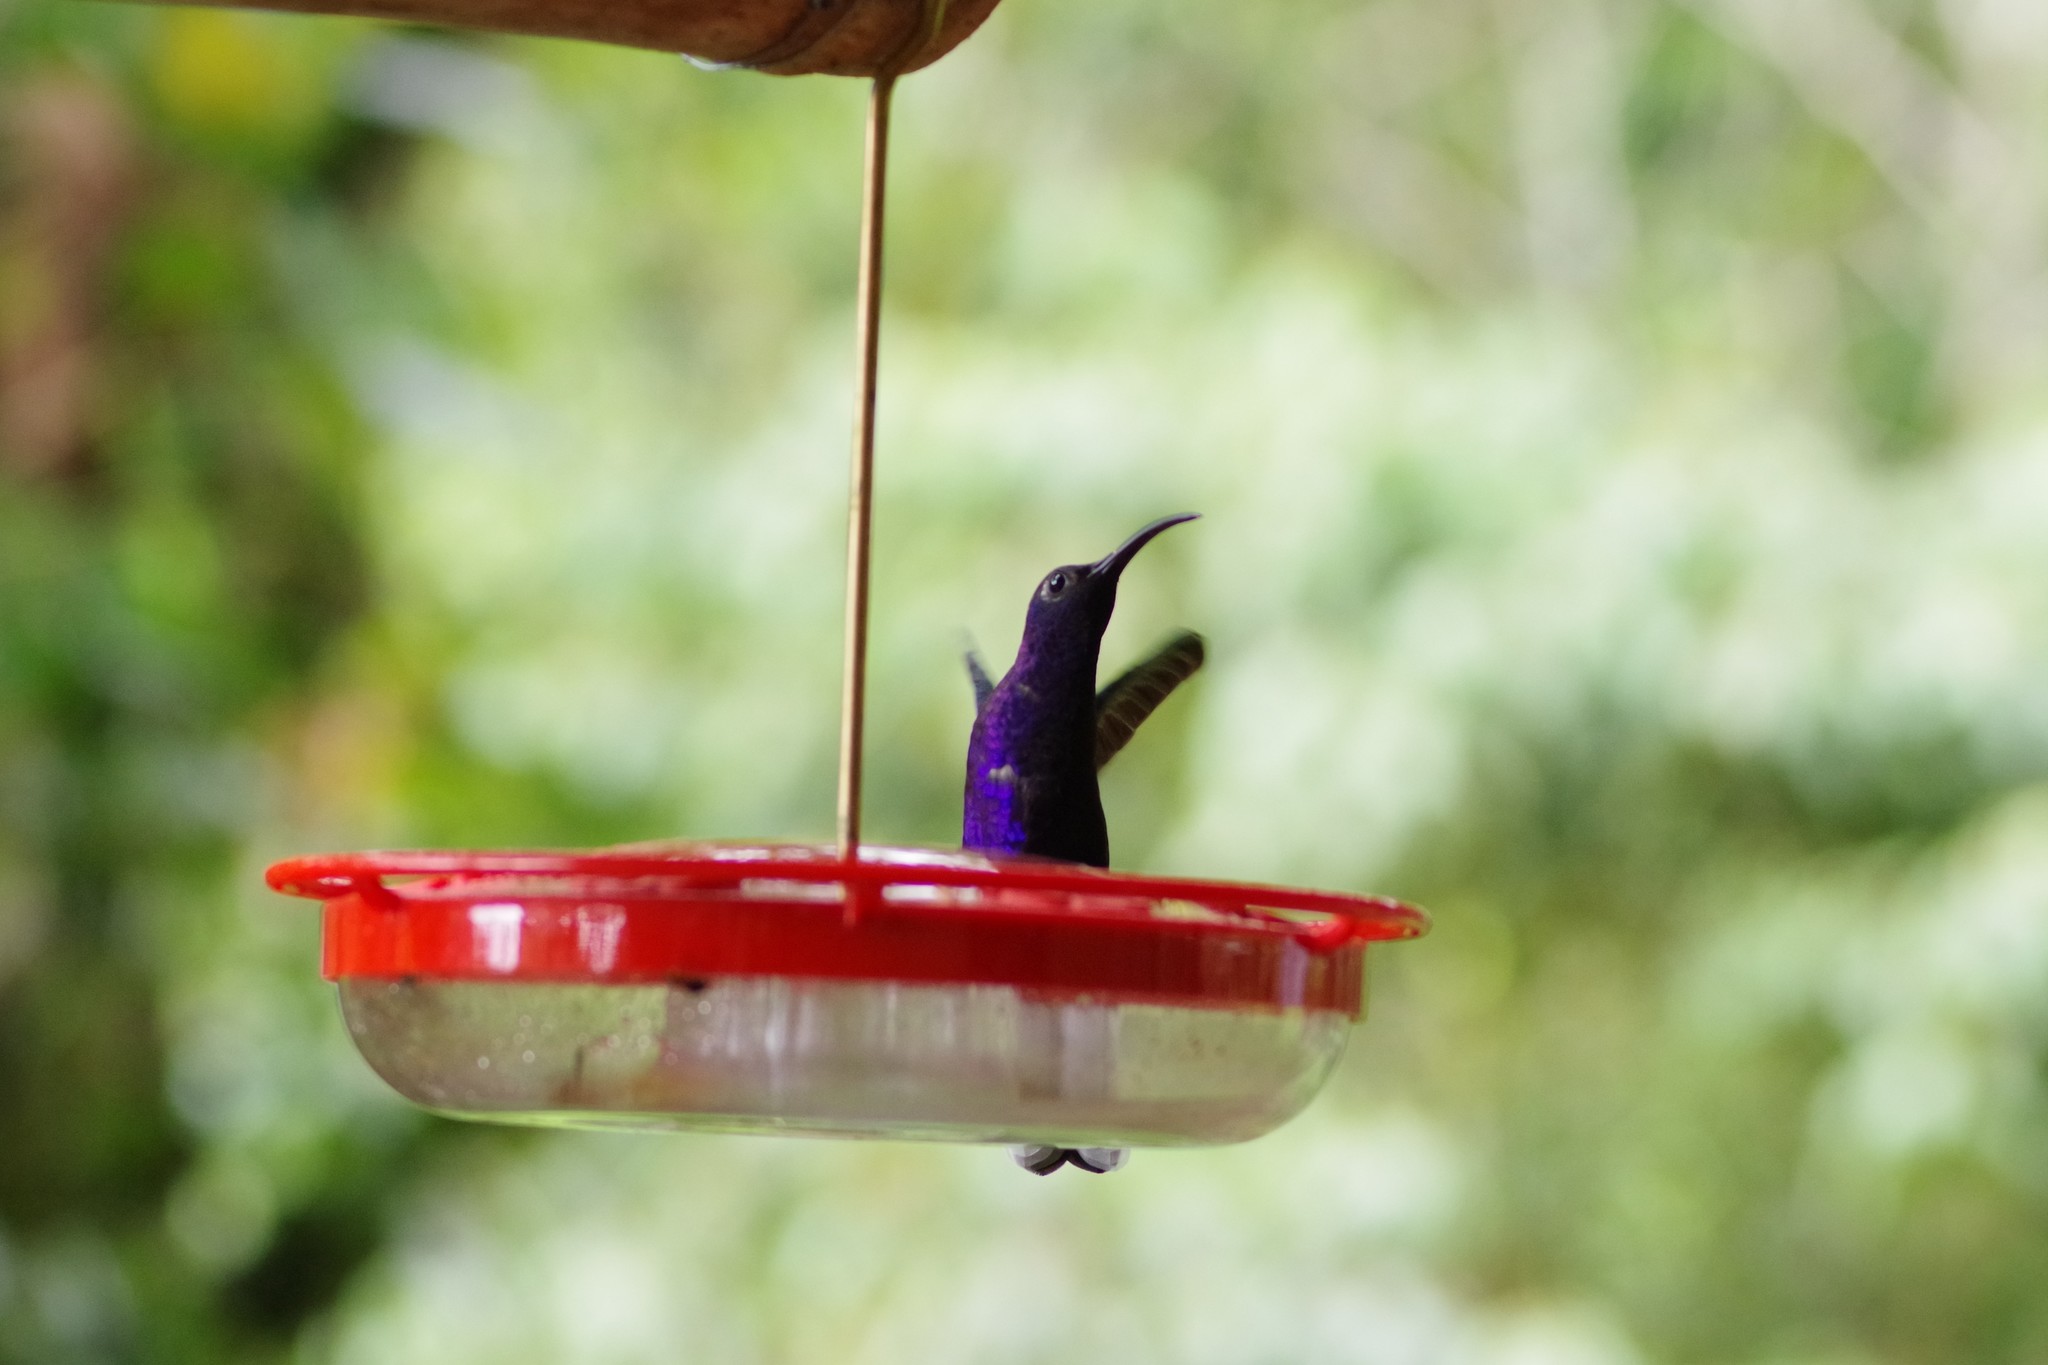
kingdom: Animalia
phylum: Chordata
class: Aves
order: Apodiformes
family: Trochilidae
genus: Campylopterus
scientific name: Campylopterus hemileucurus
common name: Violet sabrewing
